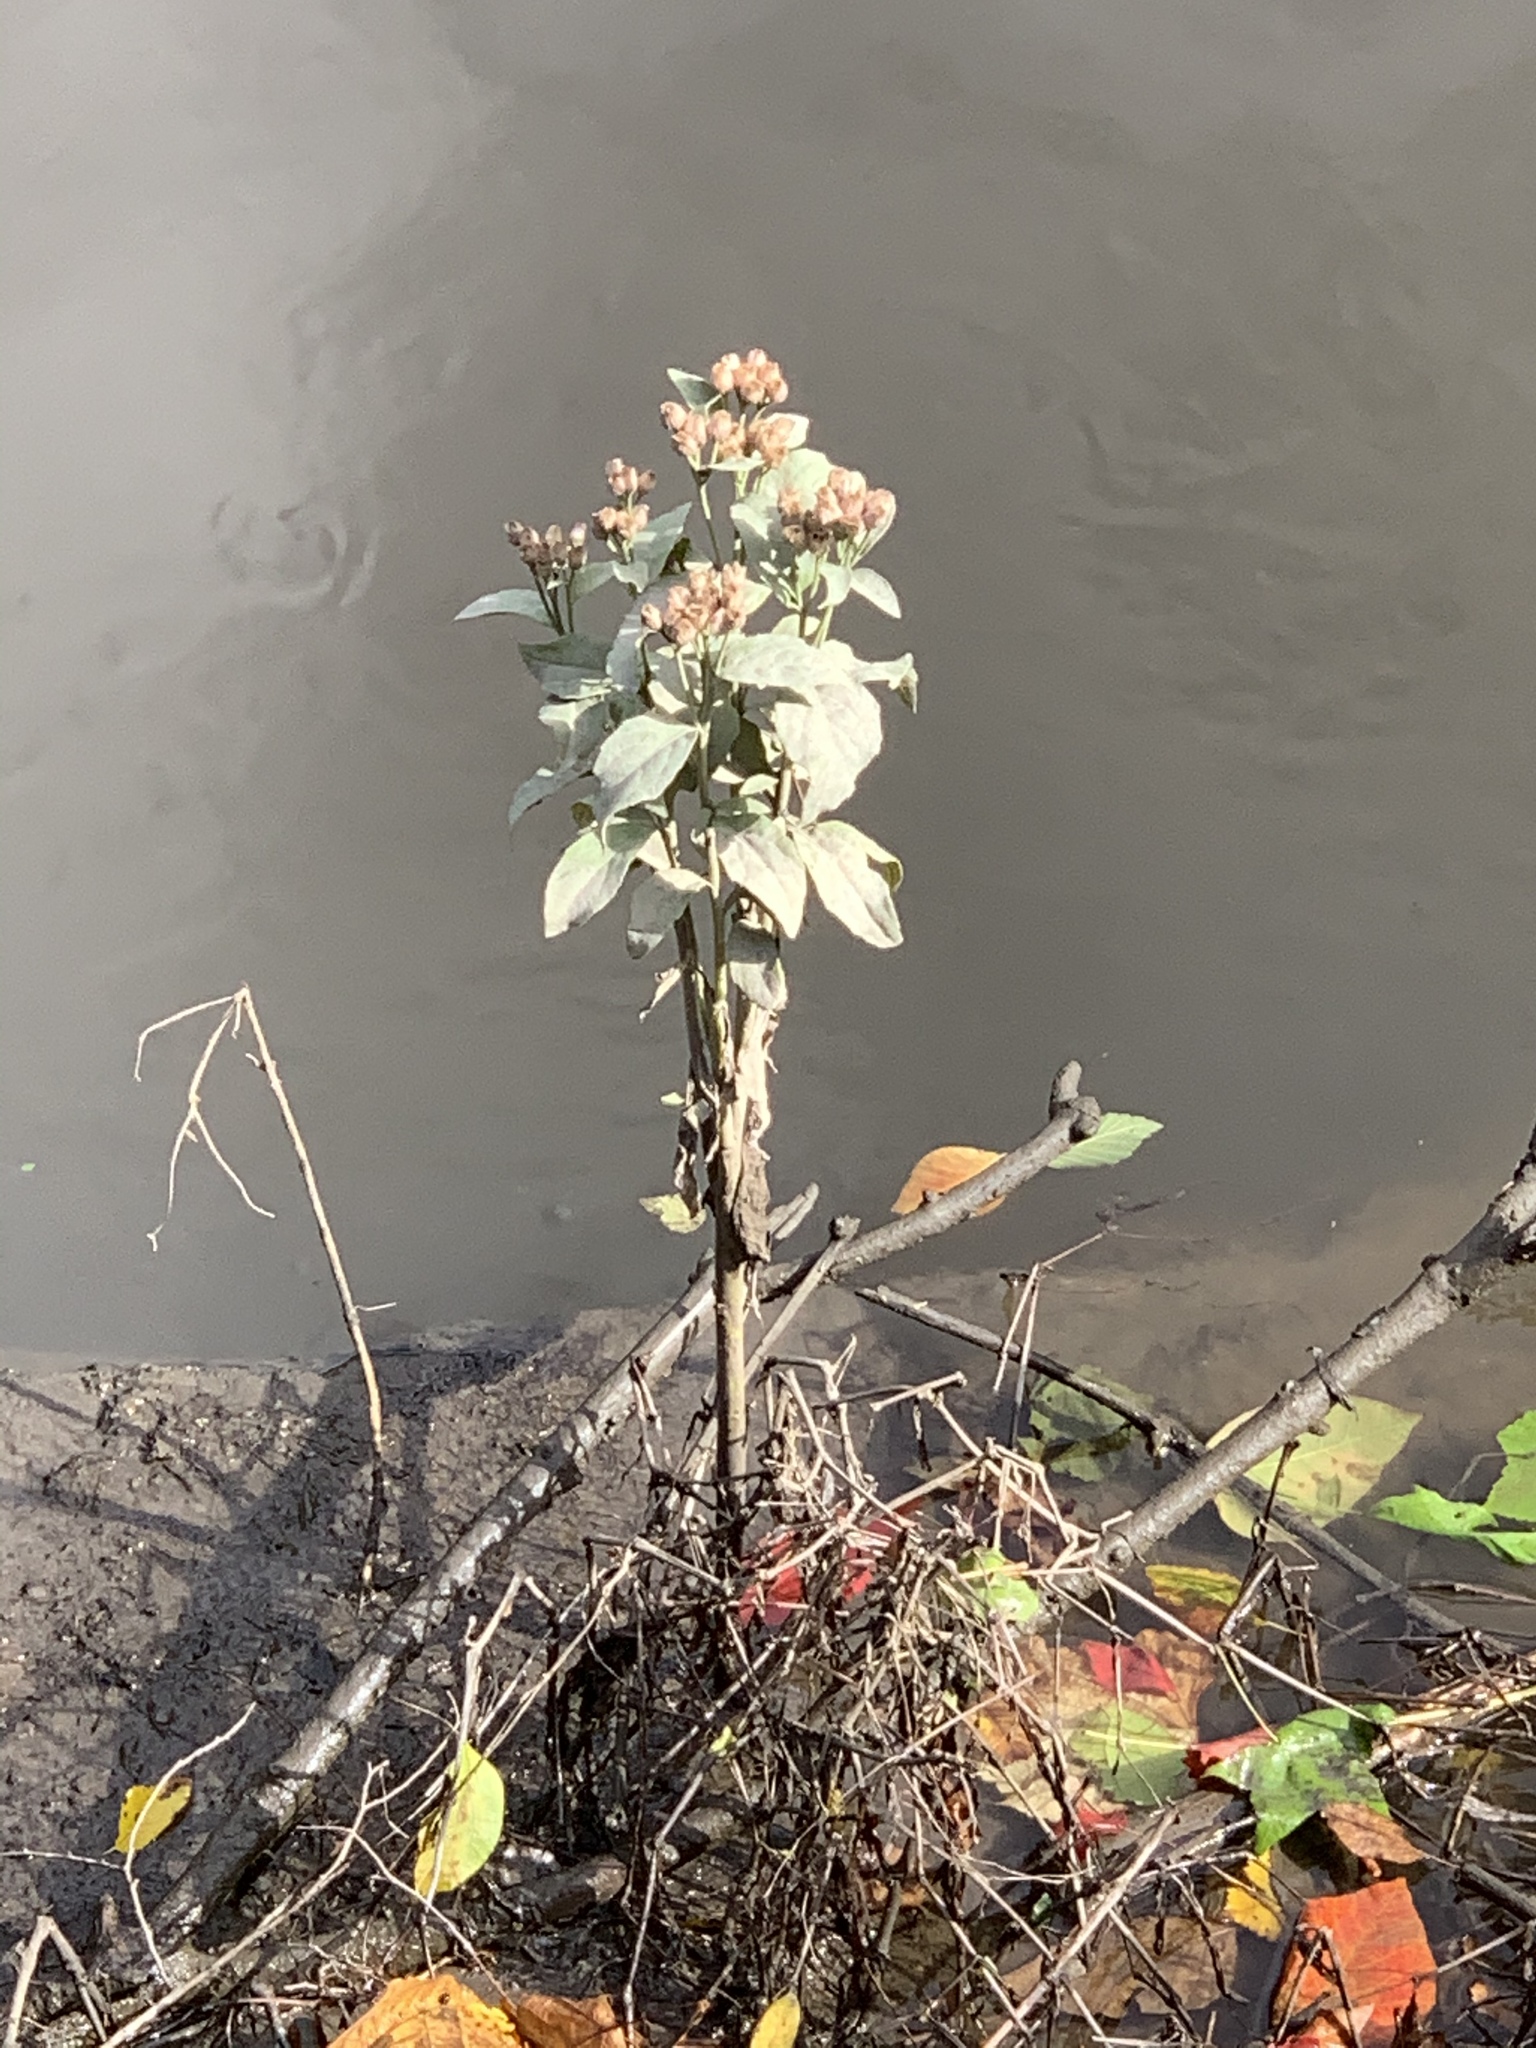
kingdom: Plantae
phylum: Tracheophyta
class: Magnoliopsida
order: Asterales
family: Asteraceae
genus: Pluchea
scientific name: Pluchea odorata
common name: Saltmarsh fleabane
